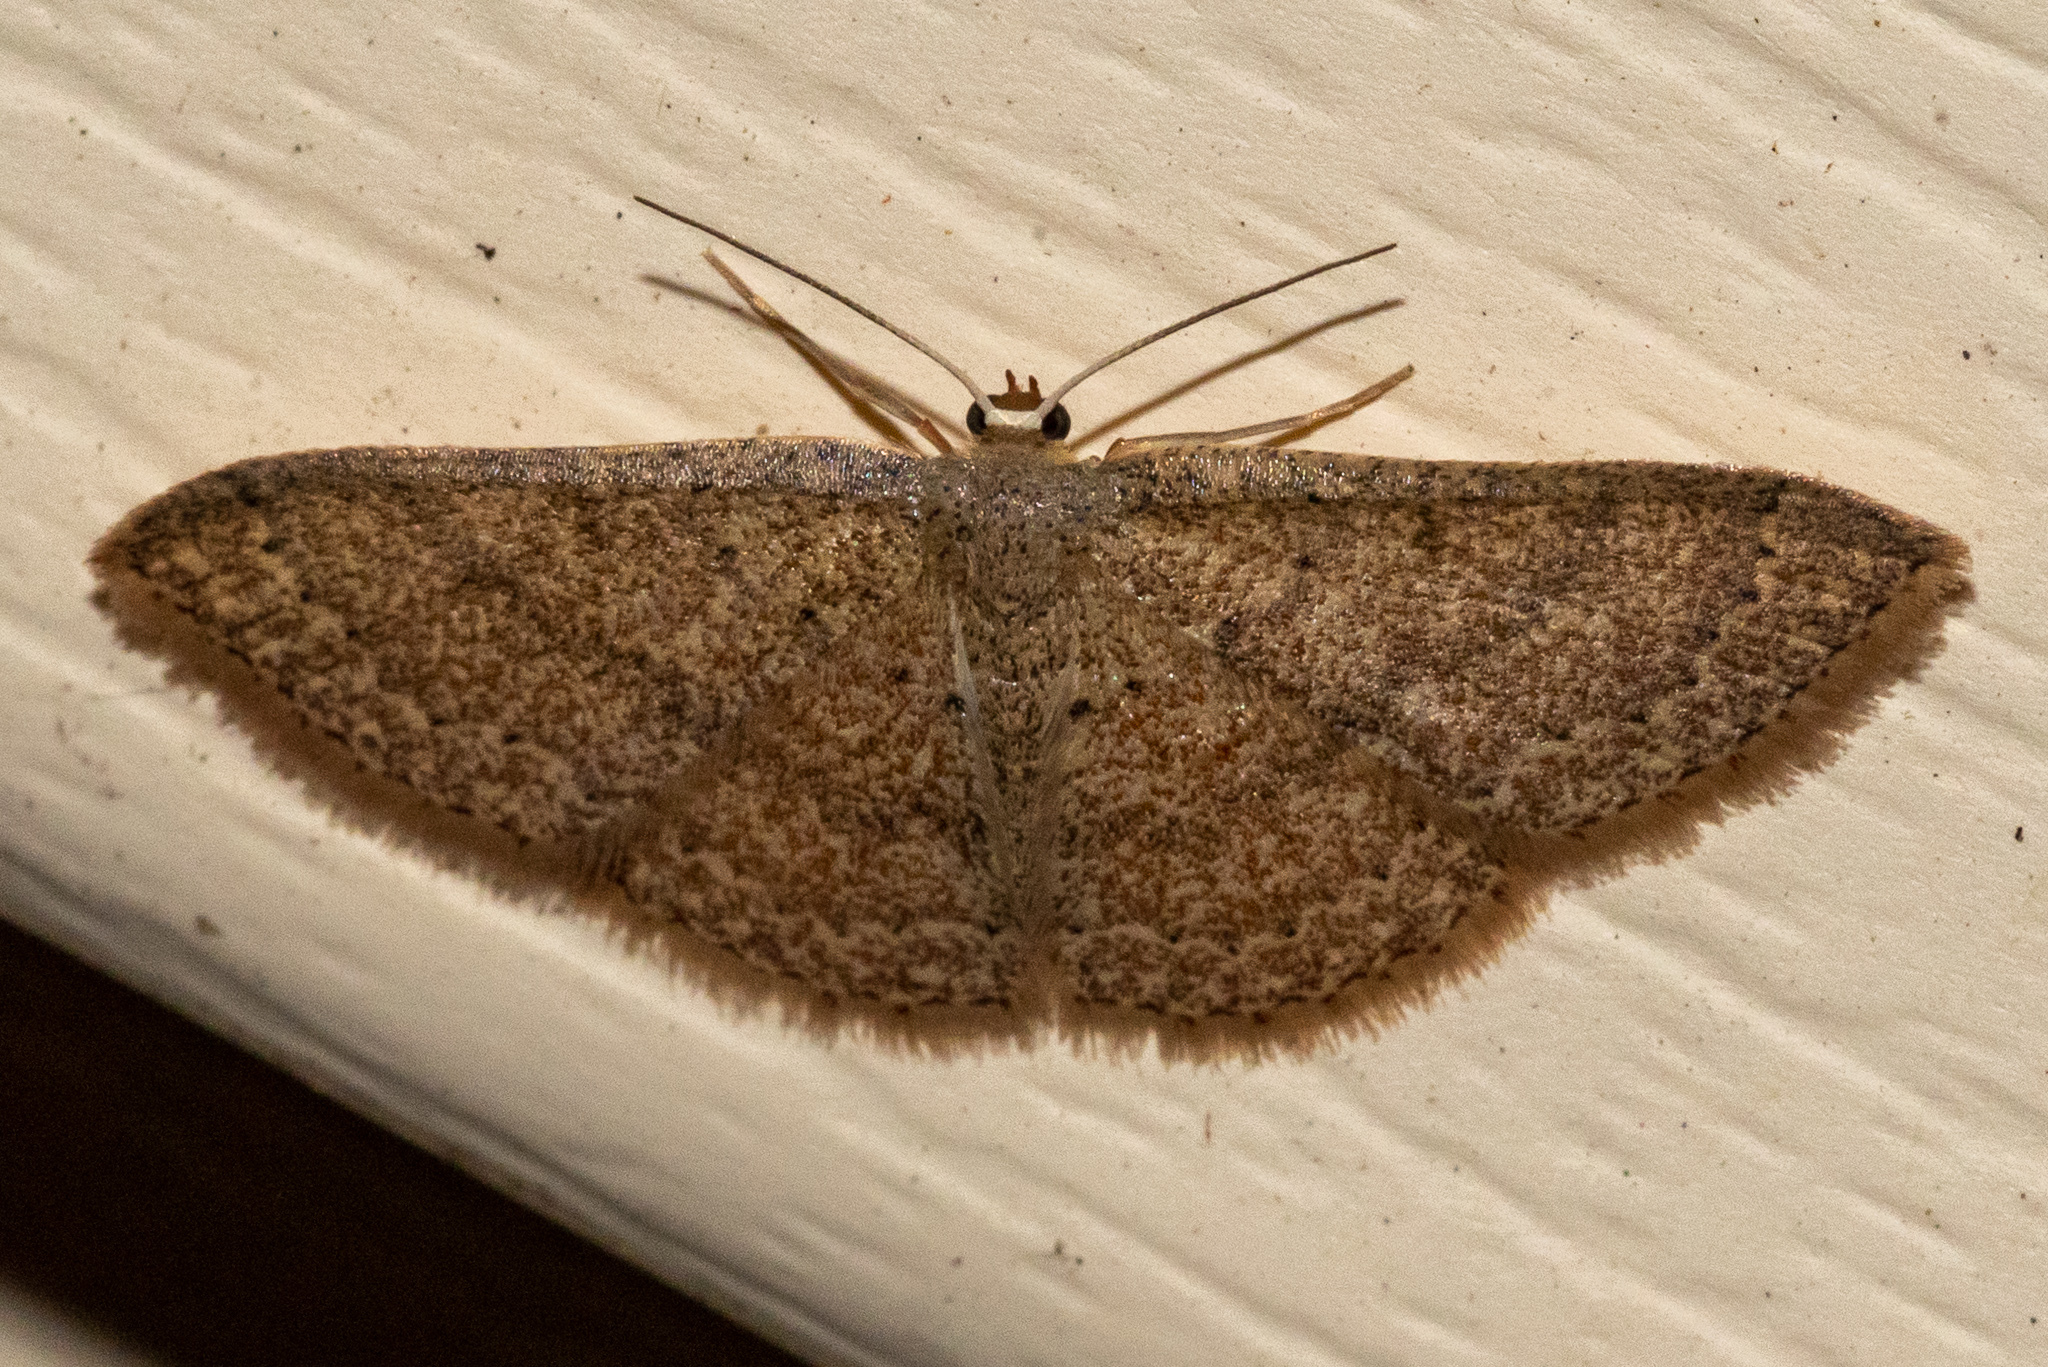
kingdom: Animalia
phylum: Arthropoda
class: Insecta
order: Lepidoptera
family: Geometridae
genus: Pleuroprucha
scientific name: Pleuroprucha insulsaria
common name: Common tan wave
